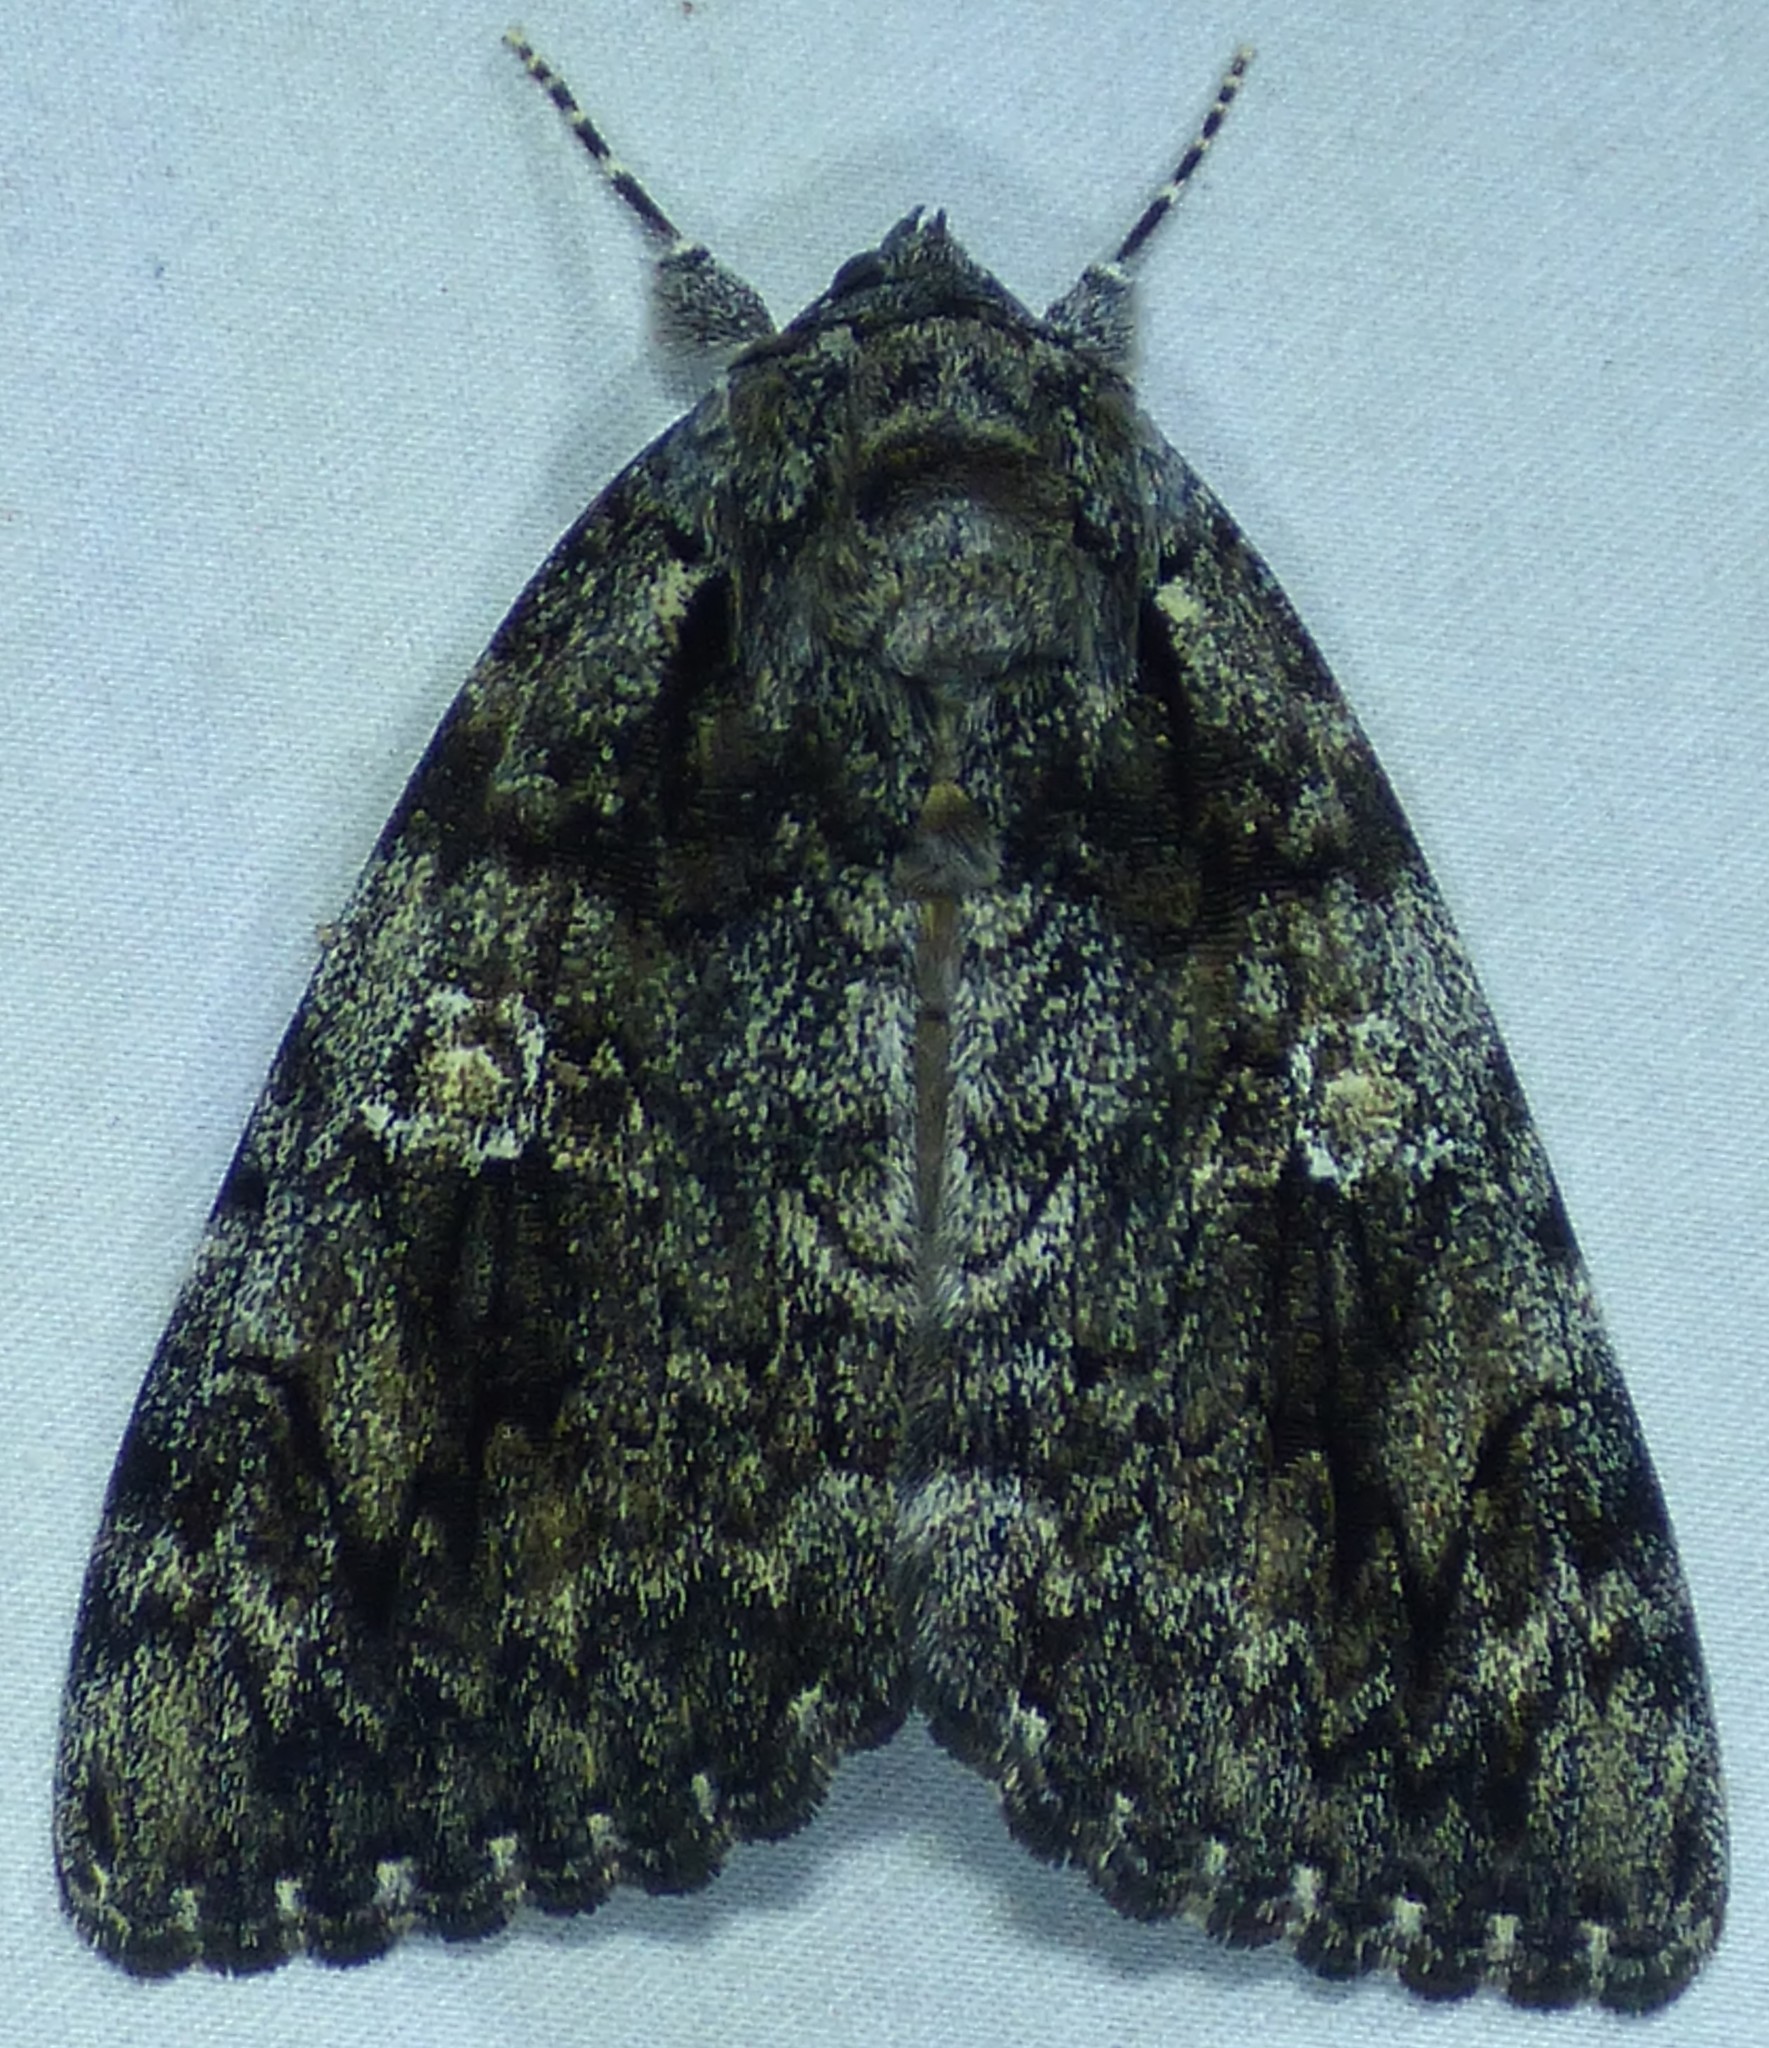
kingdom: Animalia
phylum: Arthropoda
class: Insecta
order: Lepidoptera
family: Erebidae
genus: Catocala
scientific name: Catocala ilia
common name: Ilia underwing
